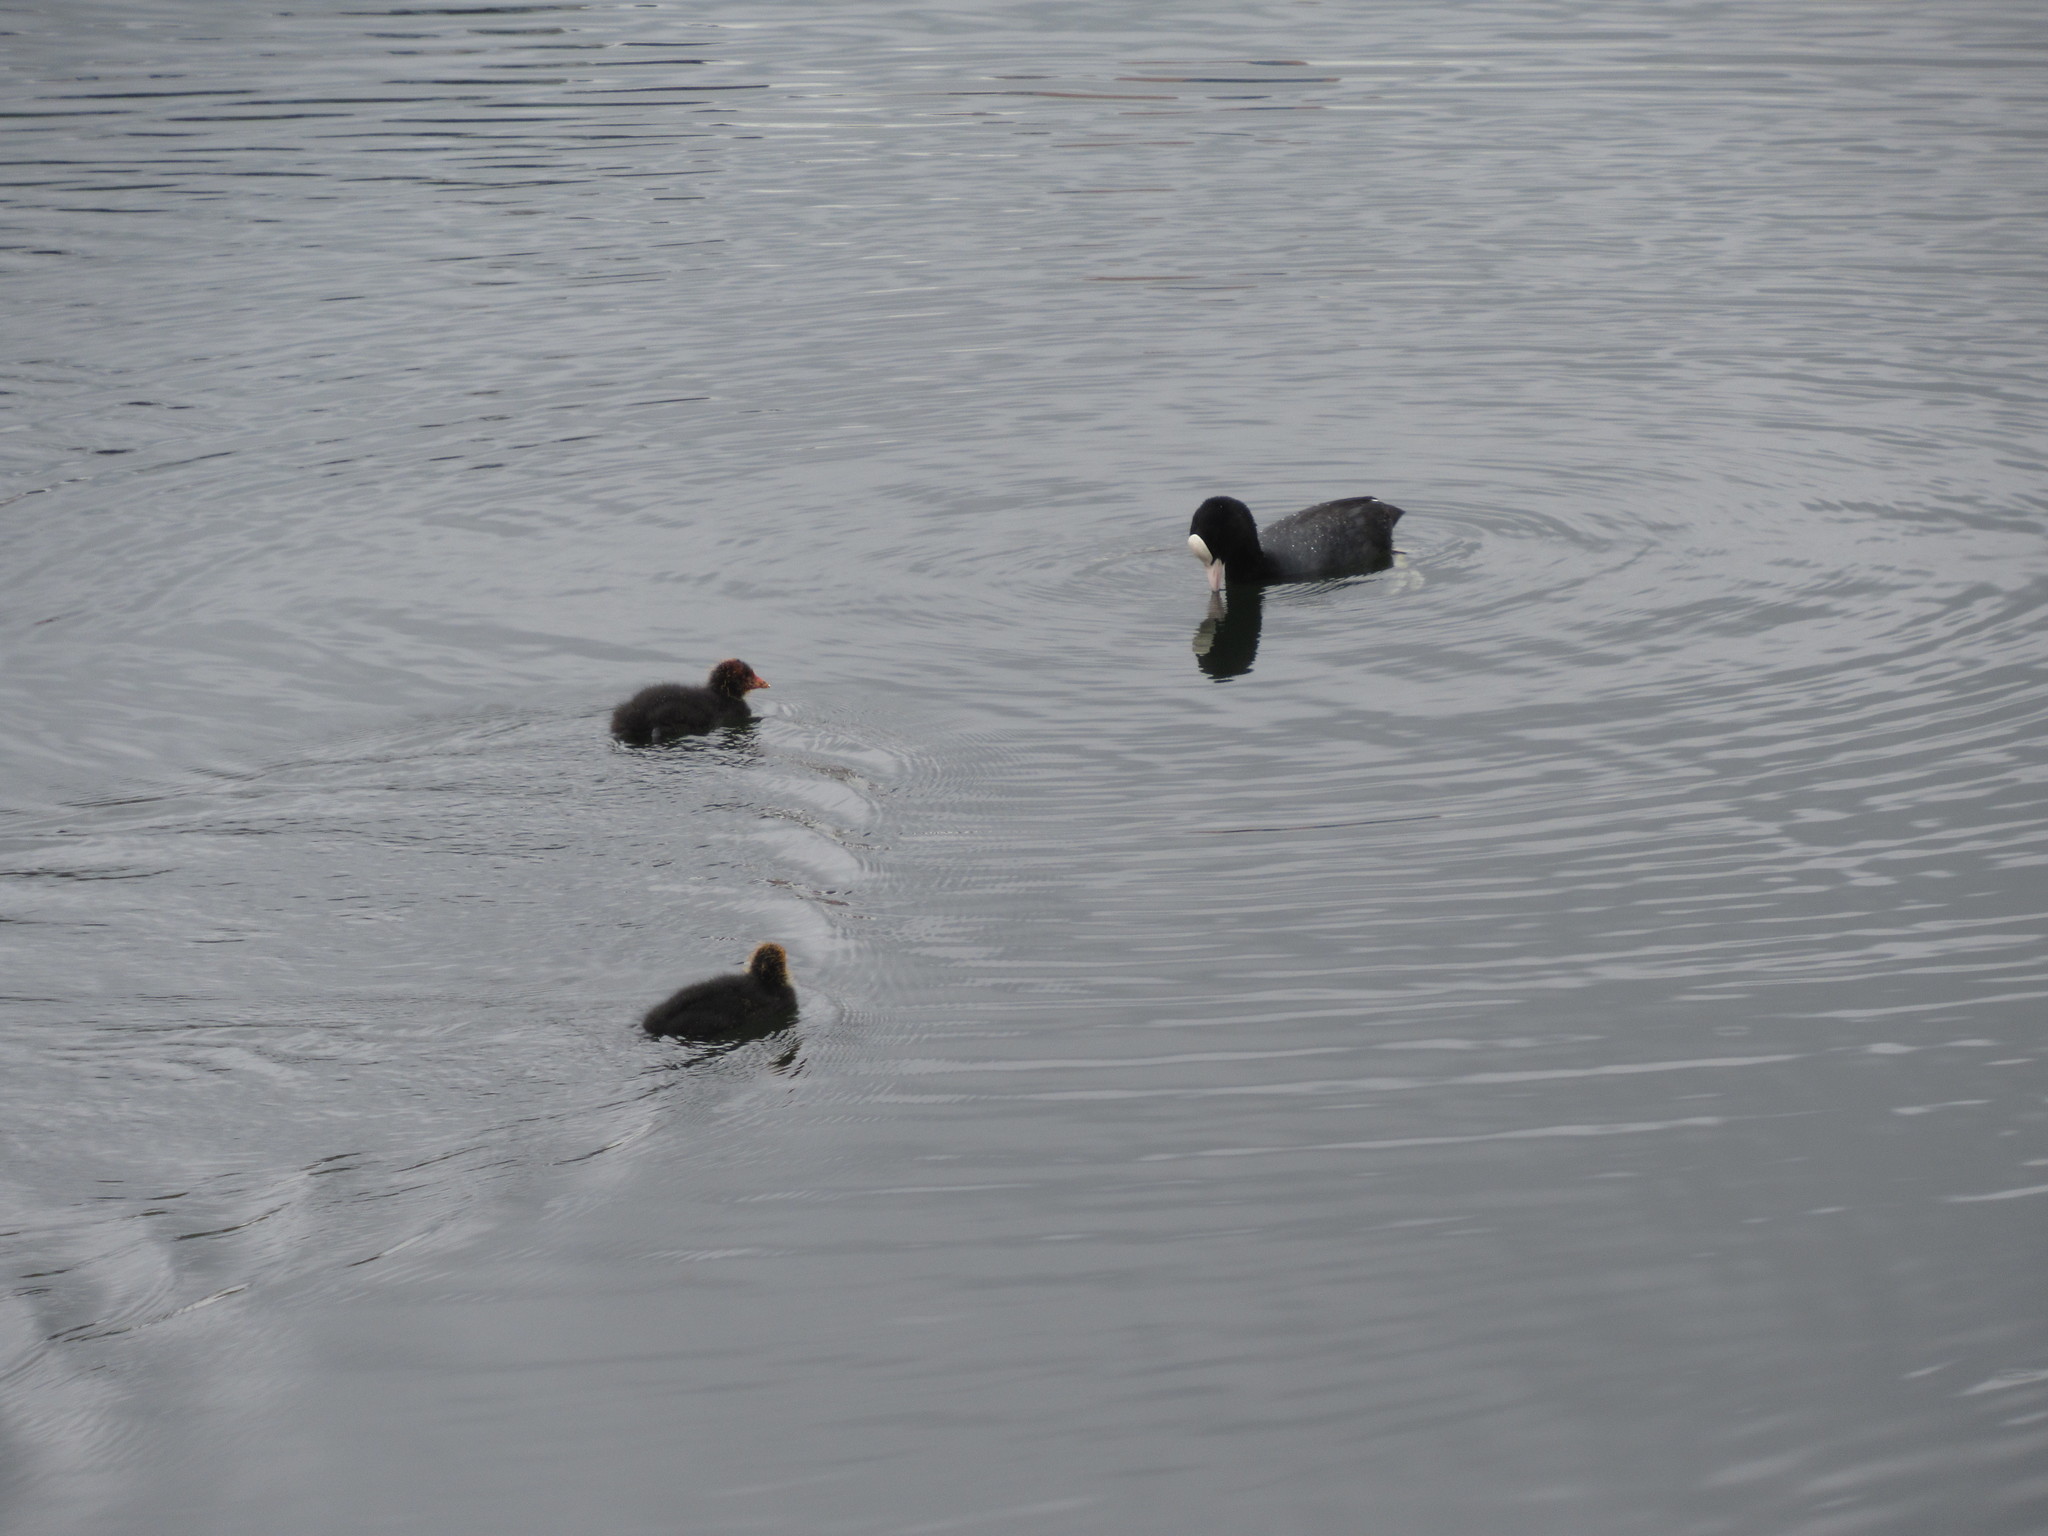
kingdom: Animalia
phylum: Chordata
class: Aves
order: Gruiformes
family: Rallidae
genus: Fulica
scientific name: Fulica atra
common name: Eurasian coot
